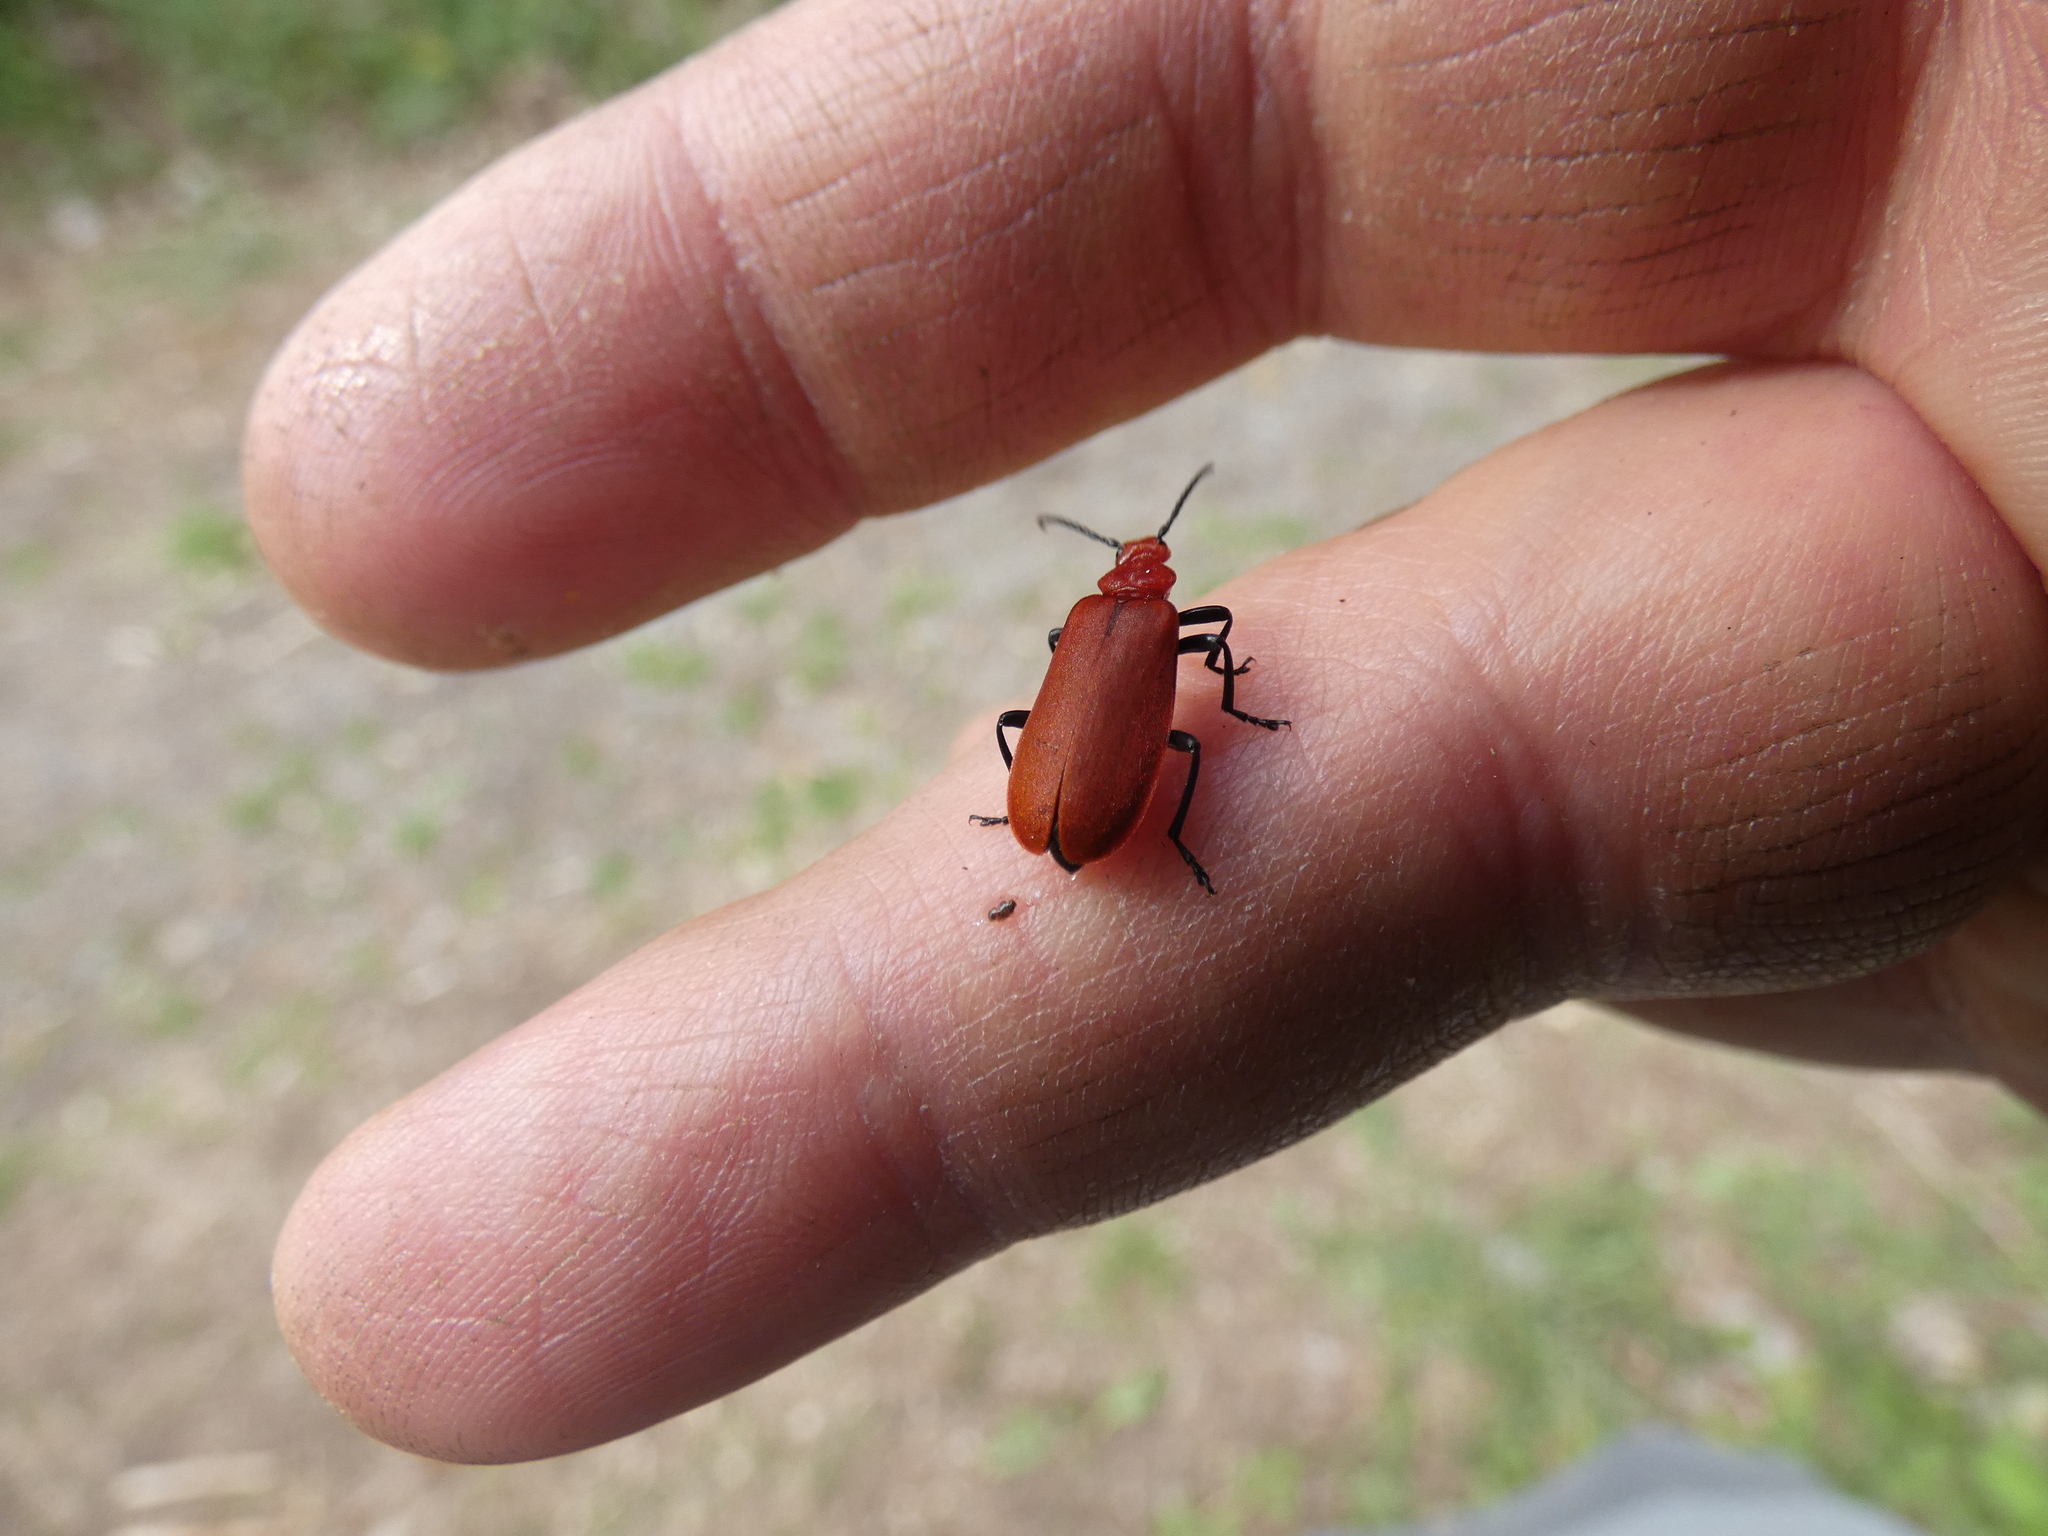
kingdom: Animalia
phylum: Arthropoda
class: Insecta
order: Coleoptera
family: Pyrochroidae
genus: Pyrochroa
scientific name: Pyrochroa serraticornis
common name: Red-headed cardinal beetle
